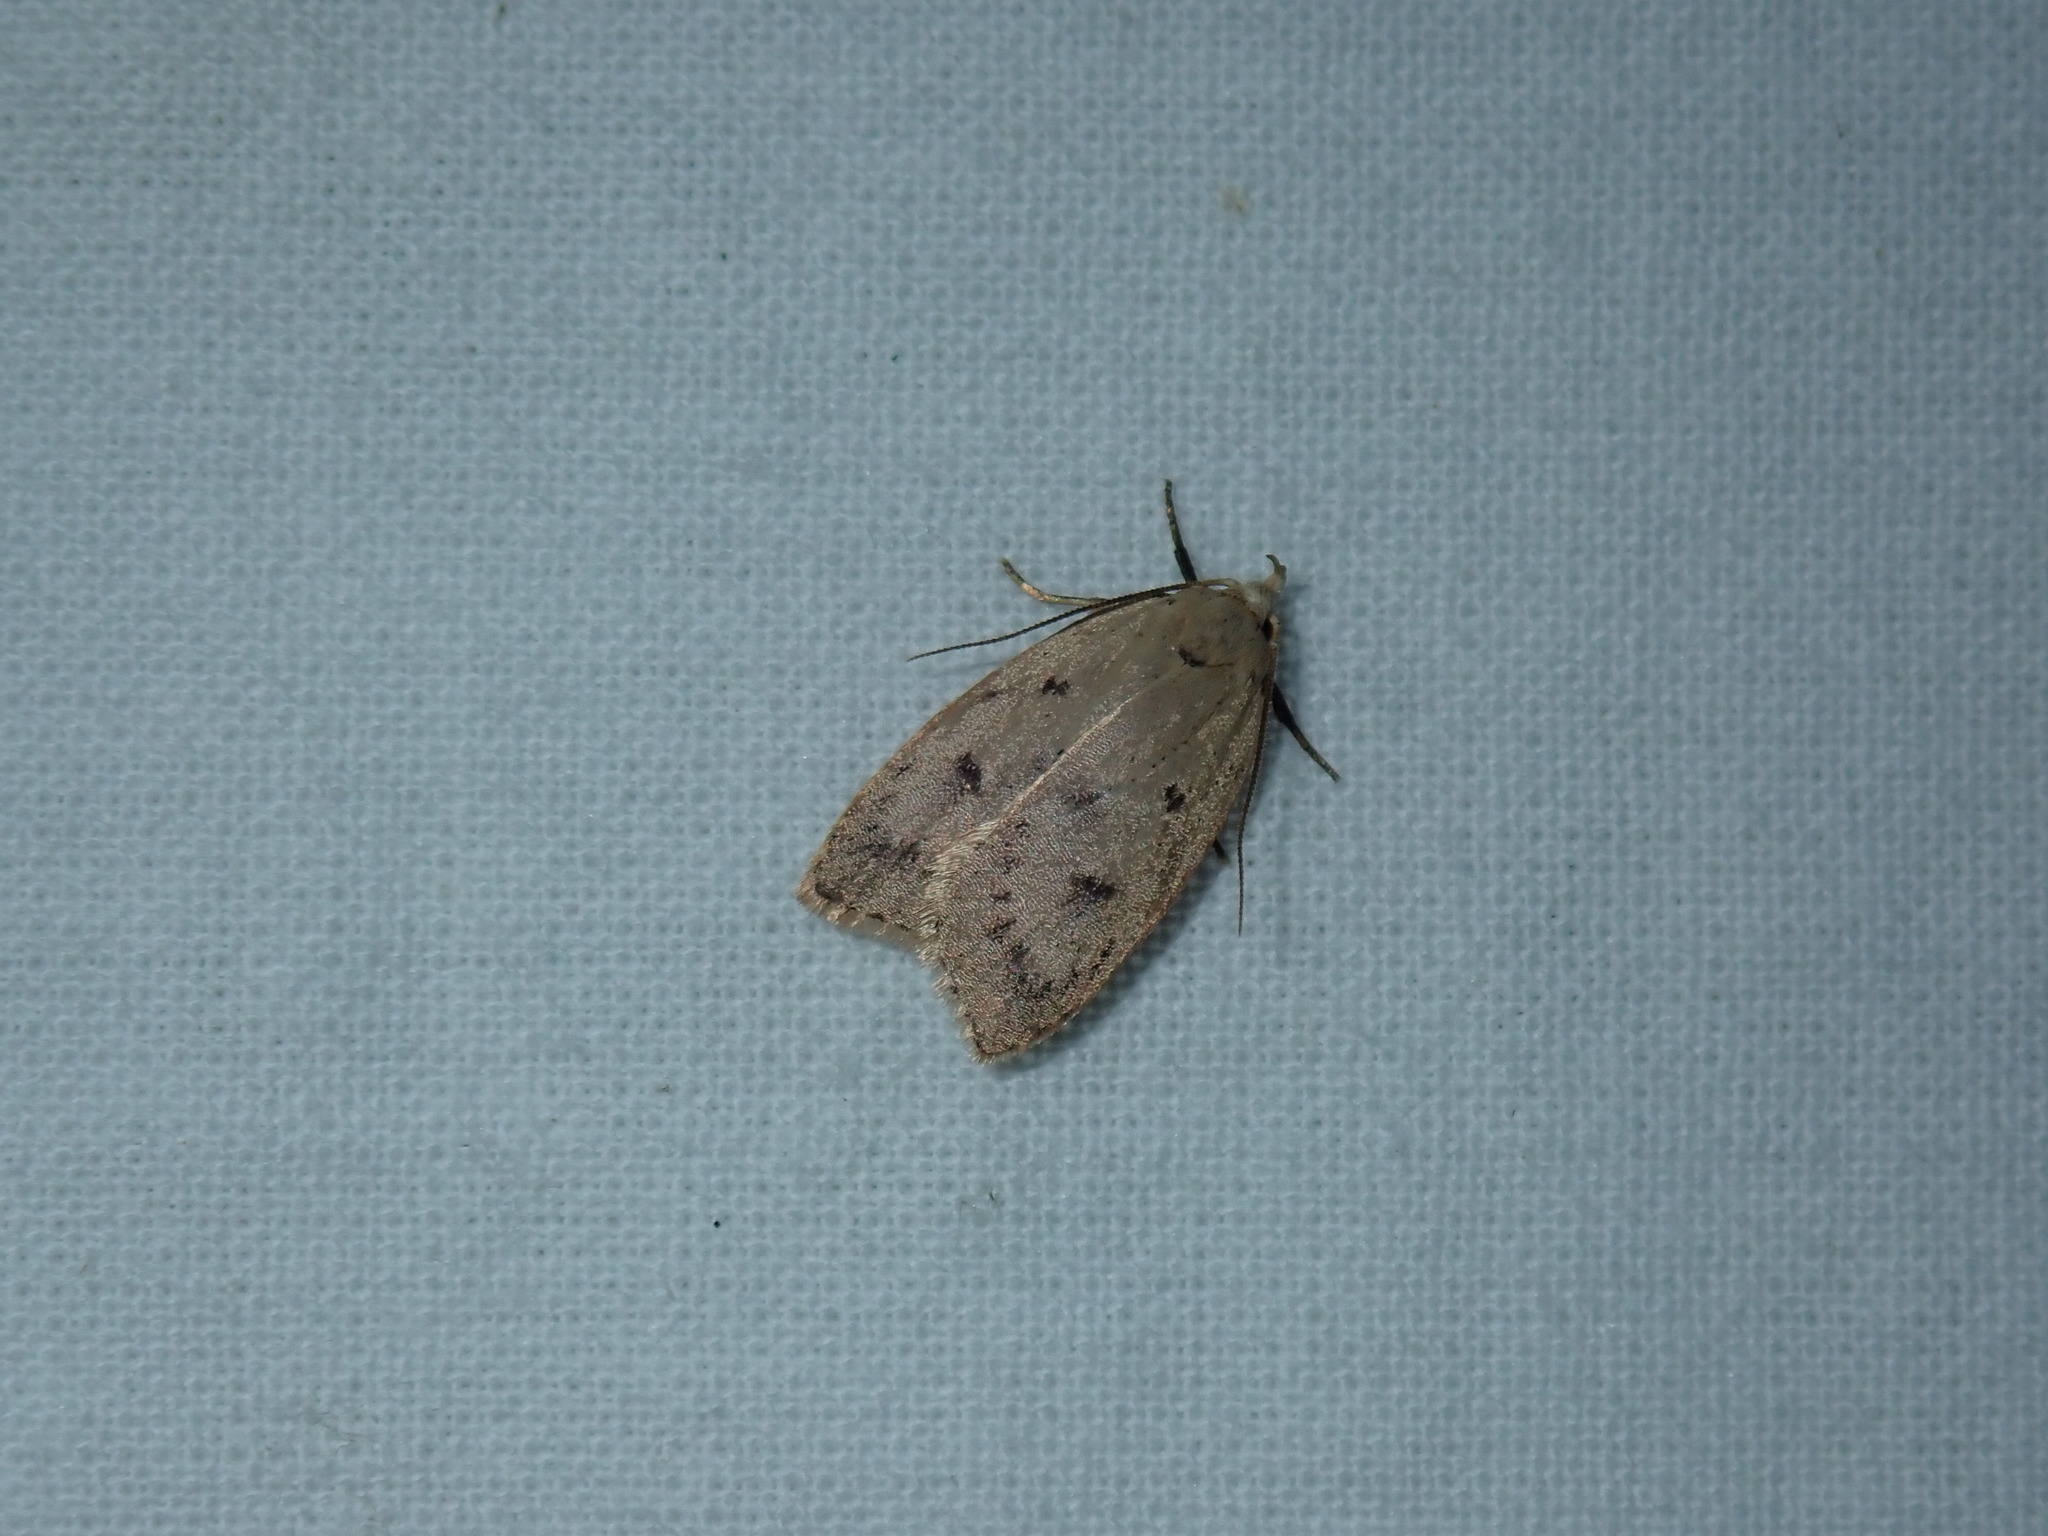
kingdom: Animalia
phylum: Arthropoda
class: Insecta
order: Lepidoptera
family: Peleopodidae
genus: Machimia
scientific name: Machimia tentoriferella
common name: Gold-striped leaftier moth
